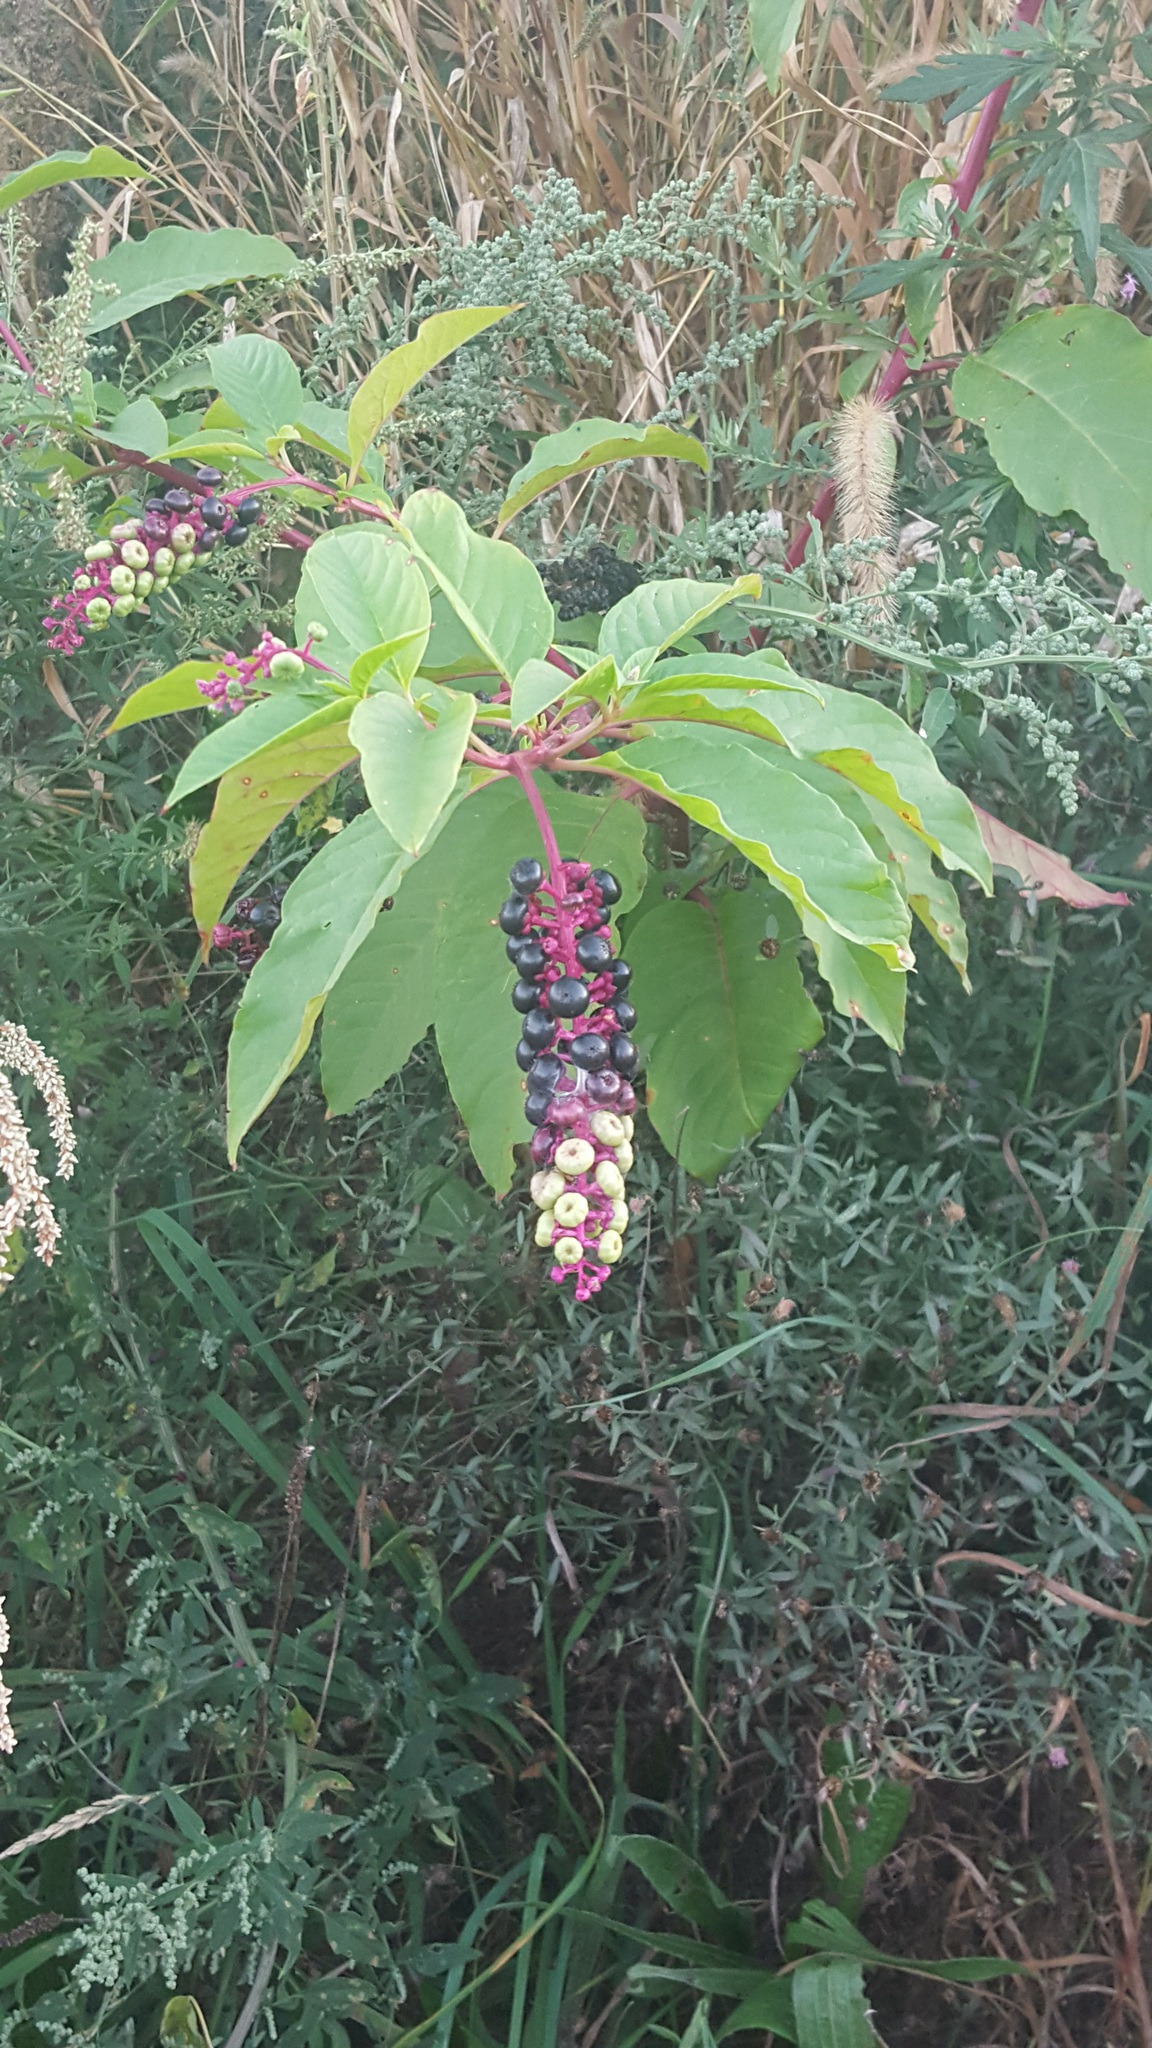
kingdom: Plantae
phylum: Tracheophyta
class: Magnoliopsida
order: Caryophyllales
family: Phytolaccaceae
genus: Phytolacca
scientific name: Phytolacca americana
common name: American pokeweed
